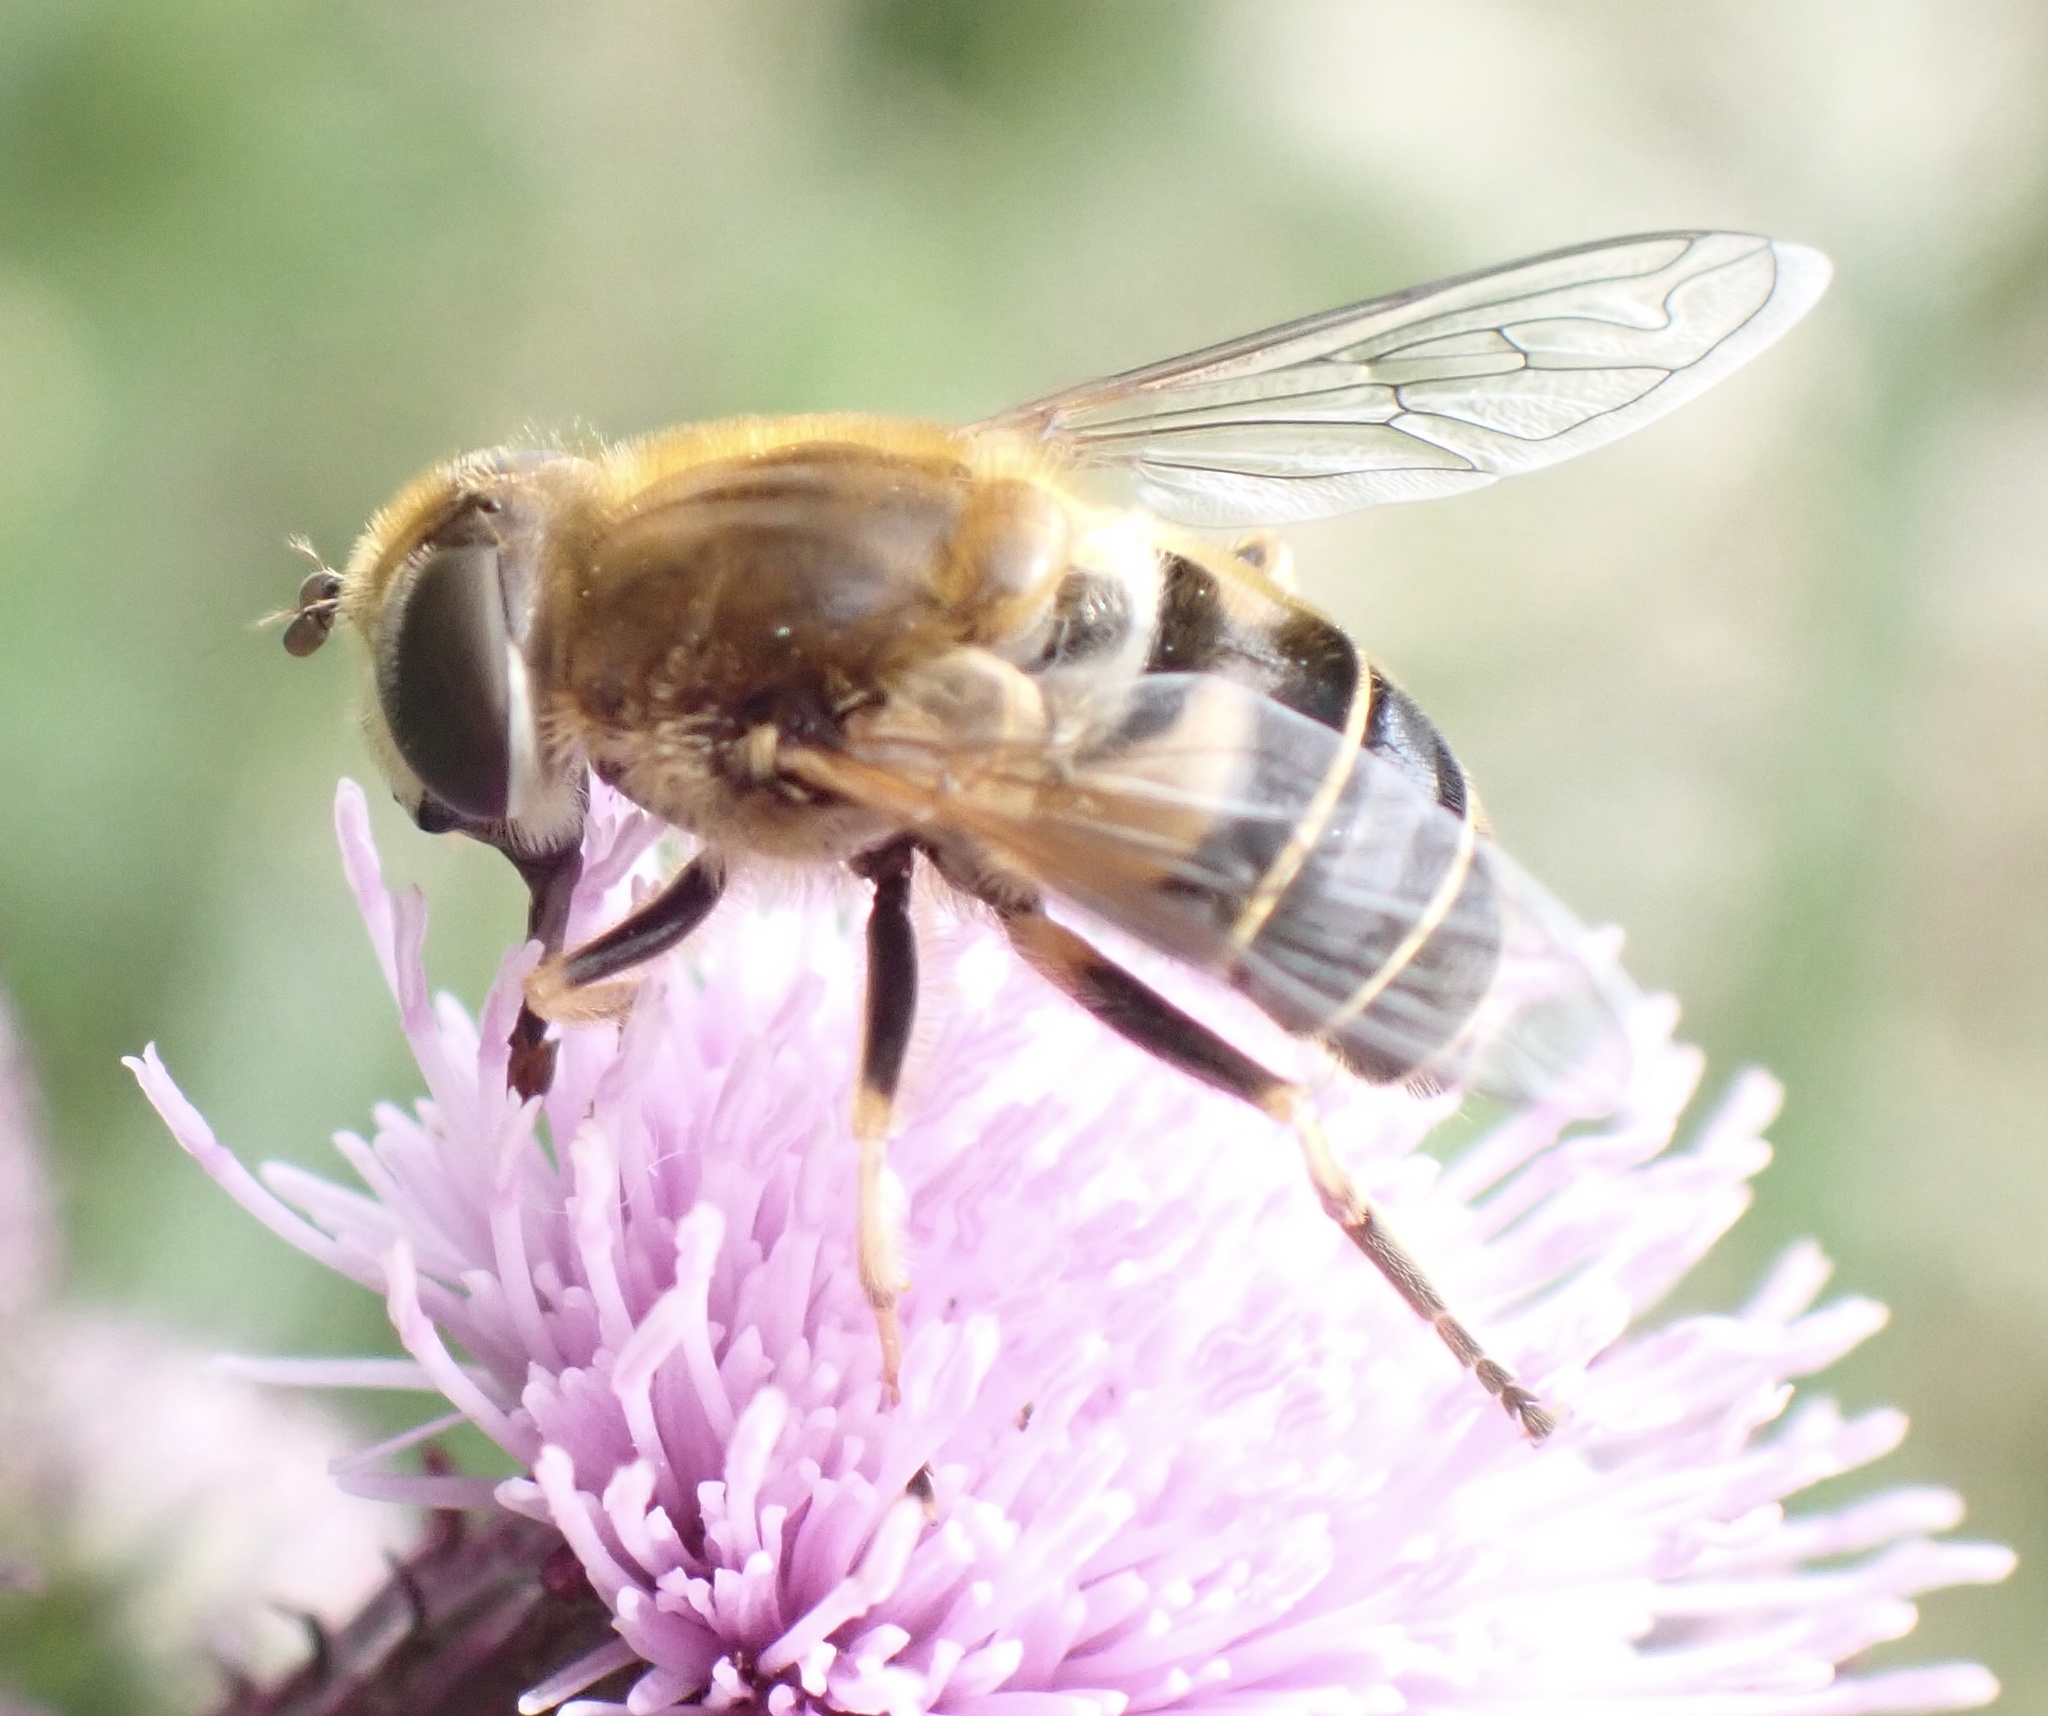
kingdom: Animalia
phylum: Arthropoda
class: Insecta
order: Diptera
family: Syrphidae
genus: Eristalis
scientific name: Eristalis nemorum
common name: Orange-spined drone fly
